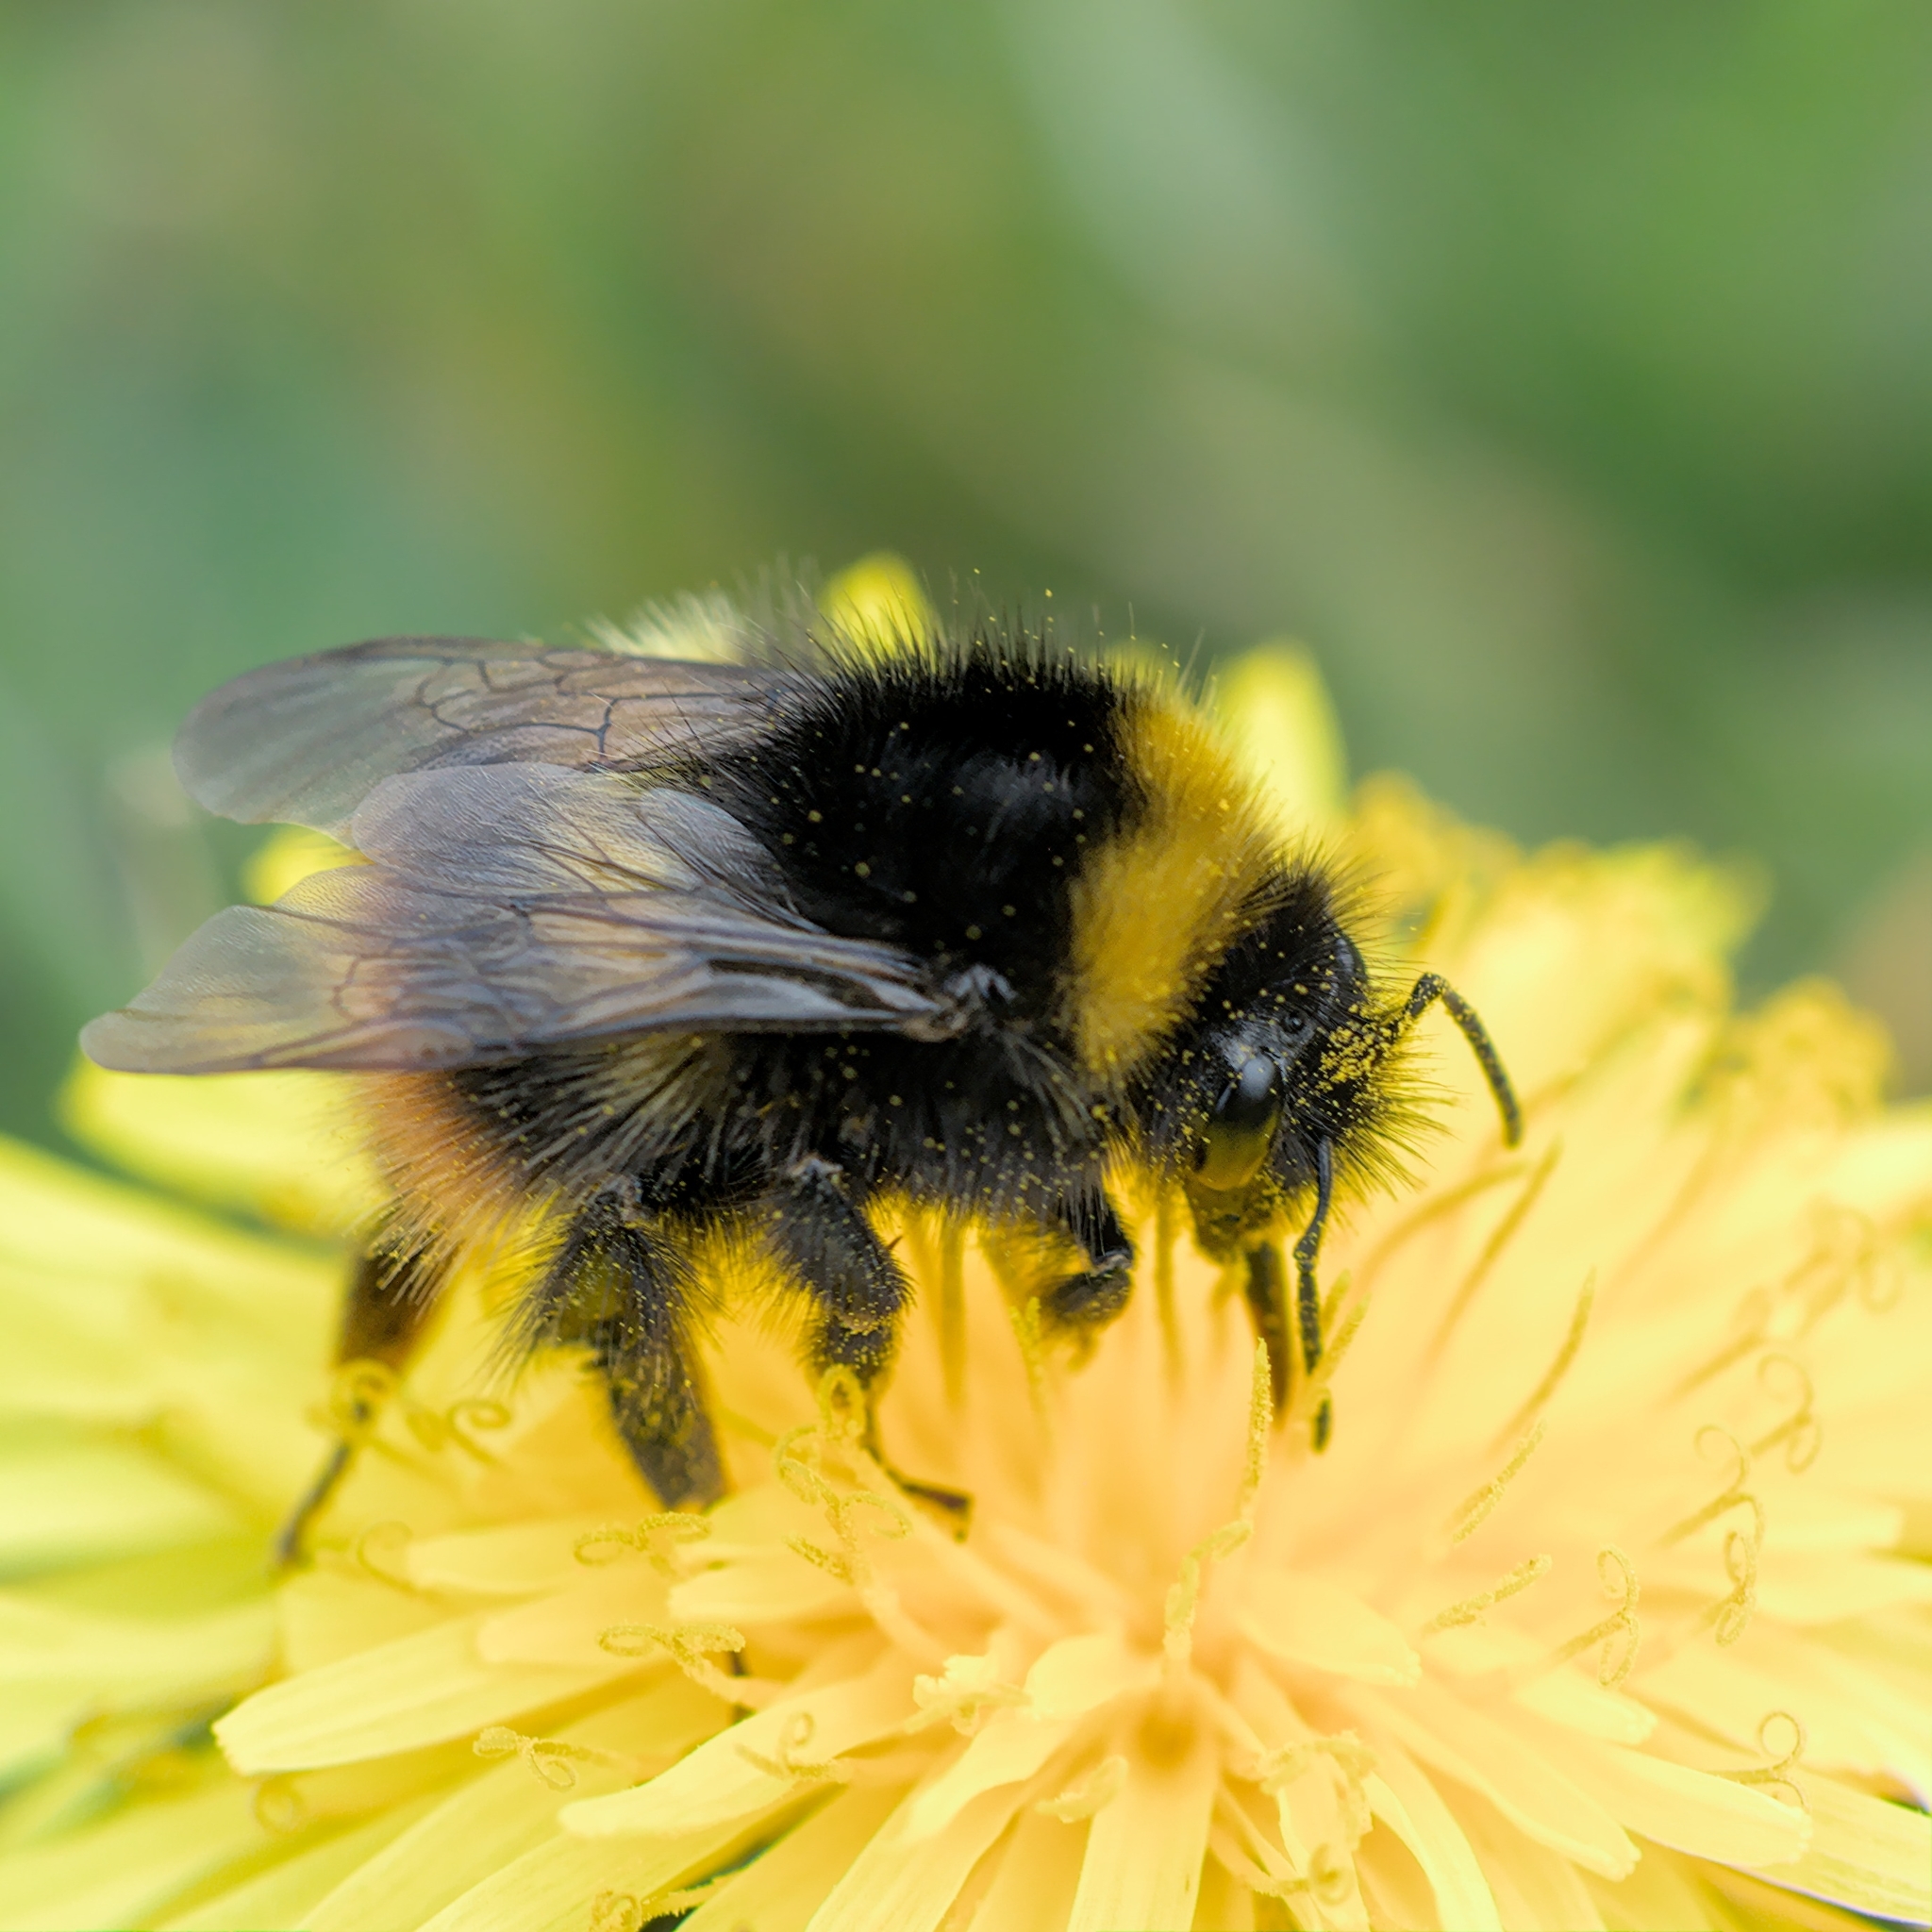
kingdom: Animalia
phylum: Arthropoda
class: Insecta
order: Hymenoptera
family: Apidae
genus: Bombus
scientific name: Bombus pratorum
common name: Early humble-bee
